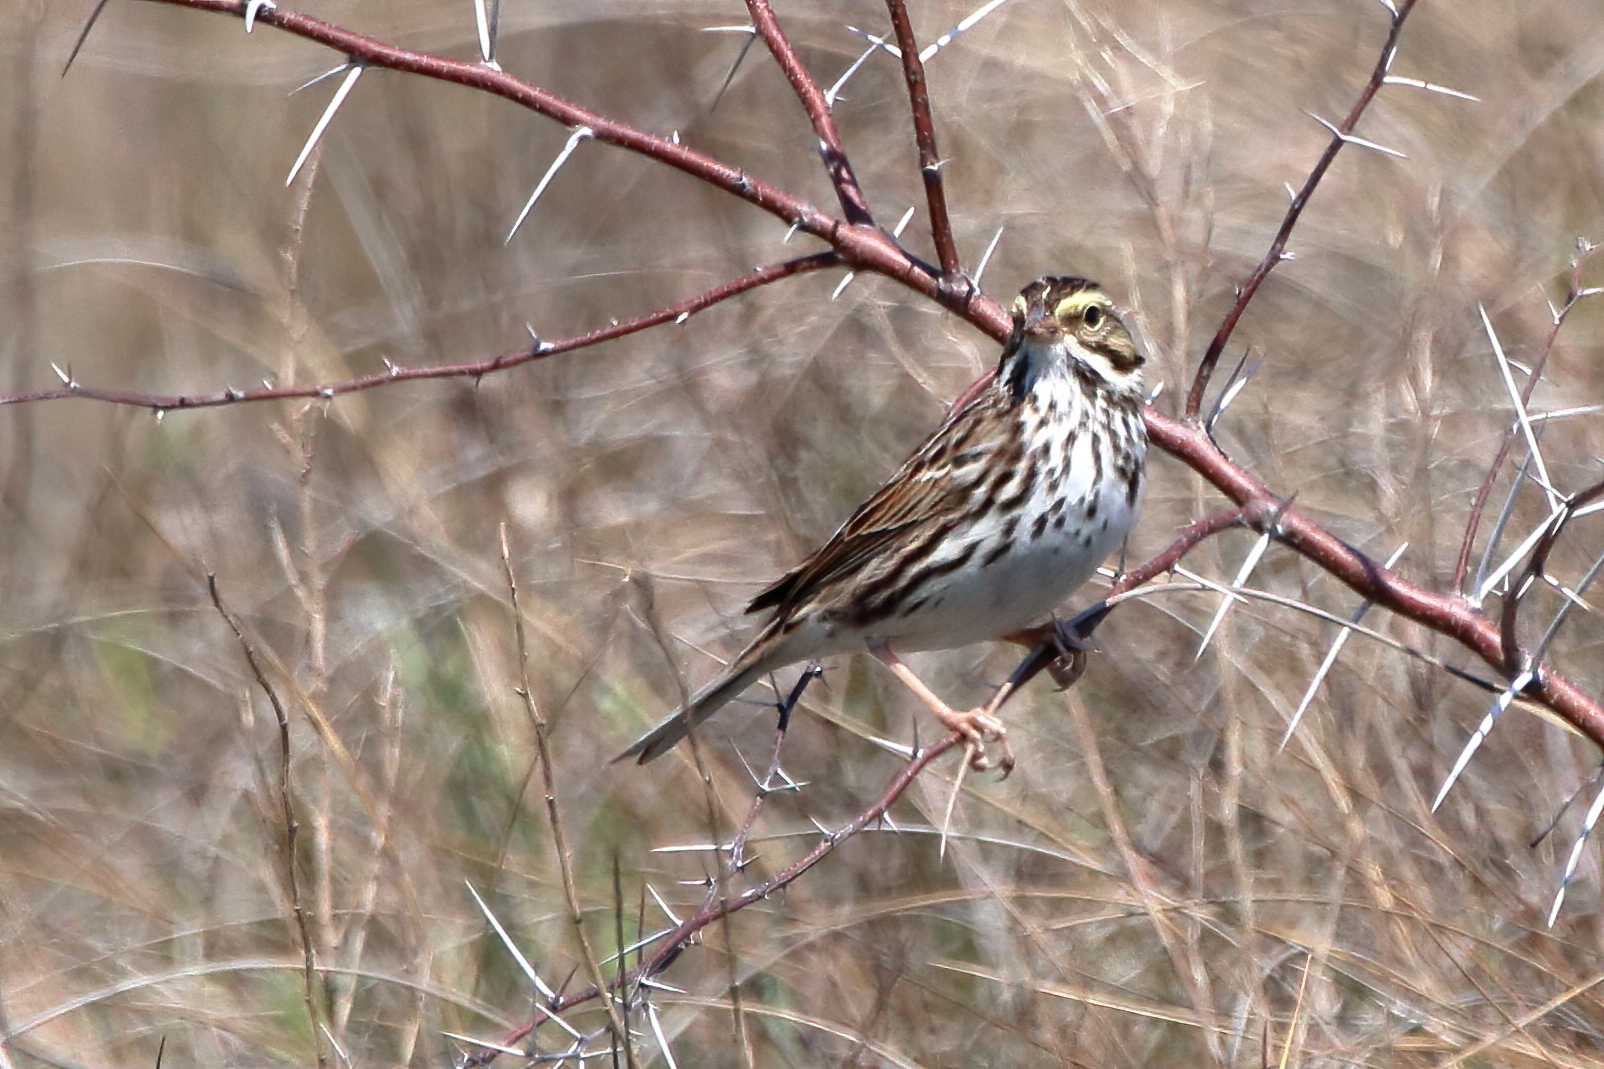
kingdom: Animalia
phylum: Chordata
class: Aves
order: Passeriformes
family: Passerellidae
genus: Passerculus
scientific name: Passerculus sandwichensis
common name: Savannah sparrow
